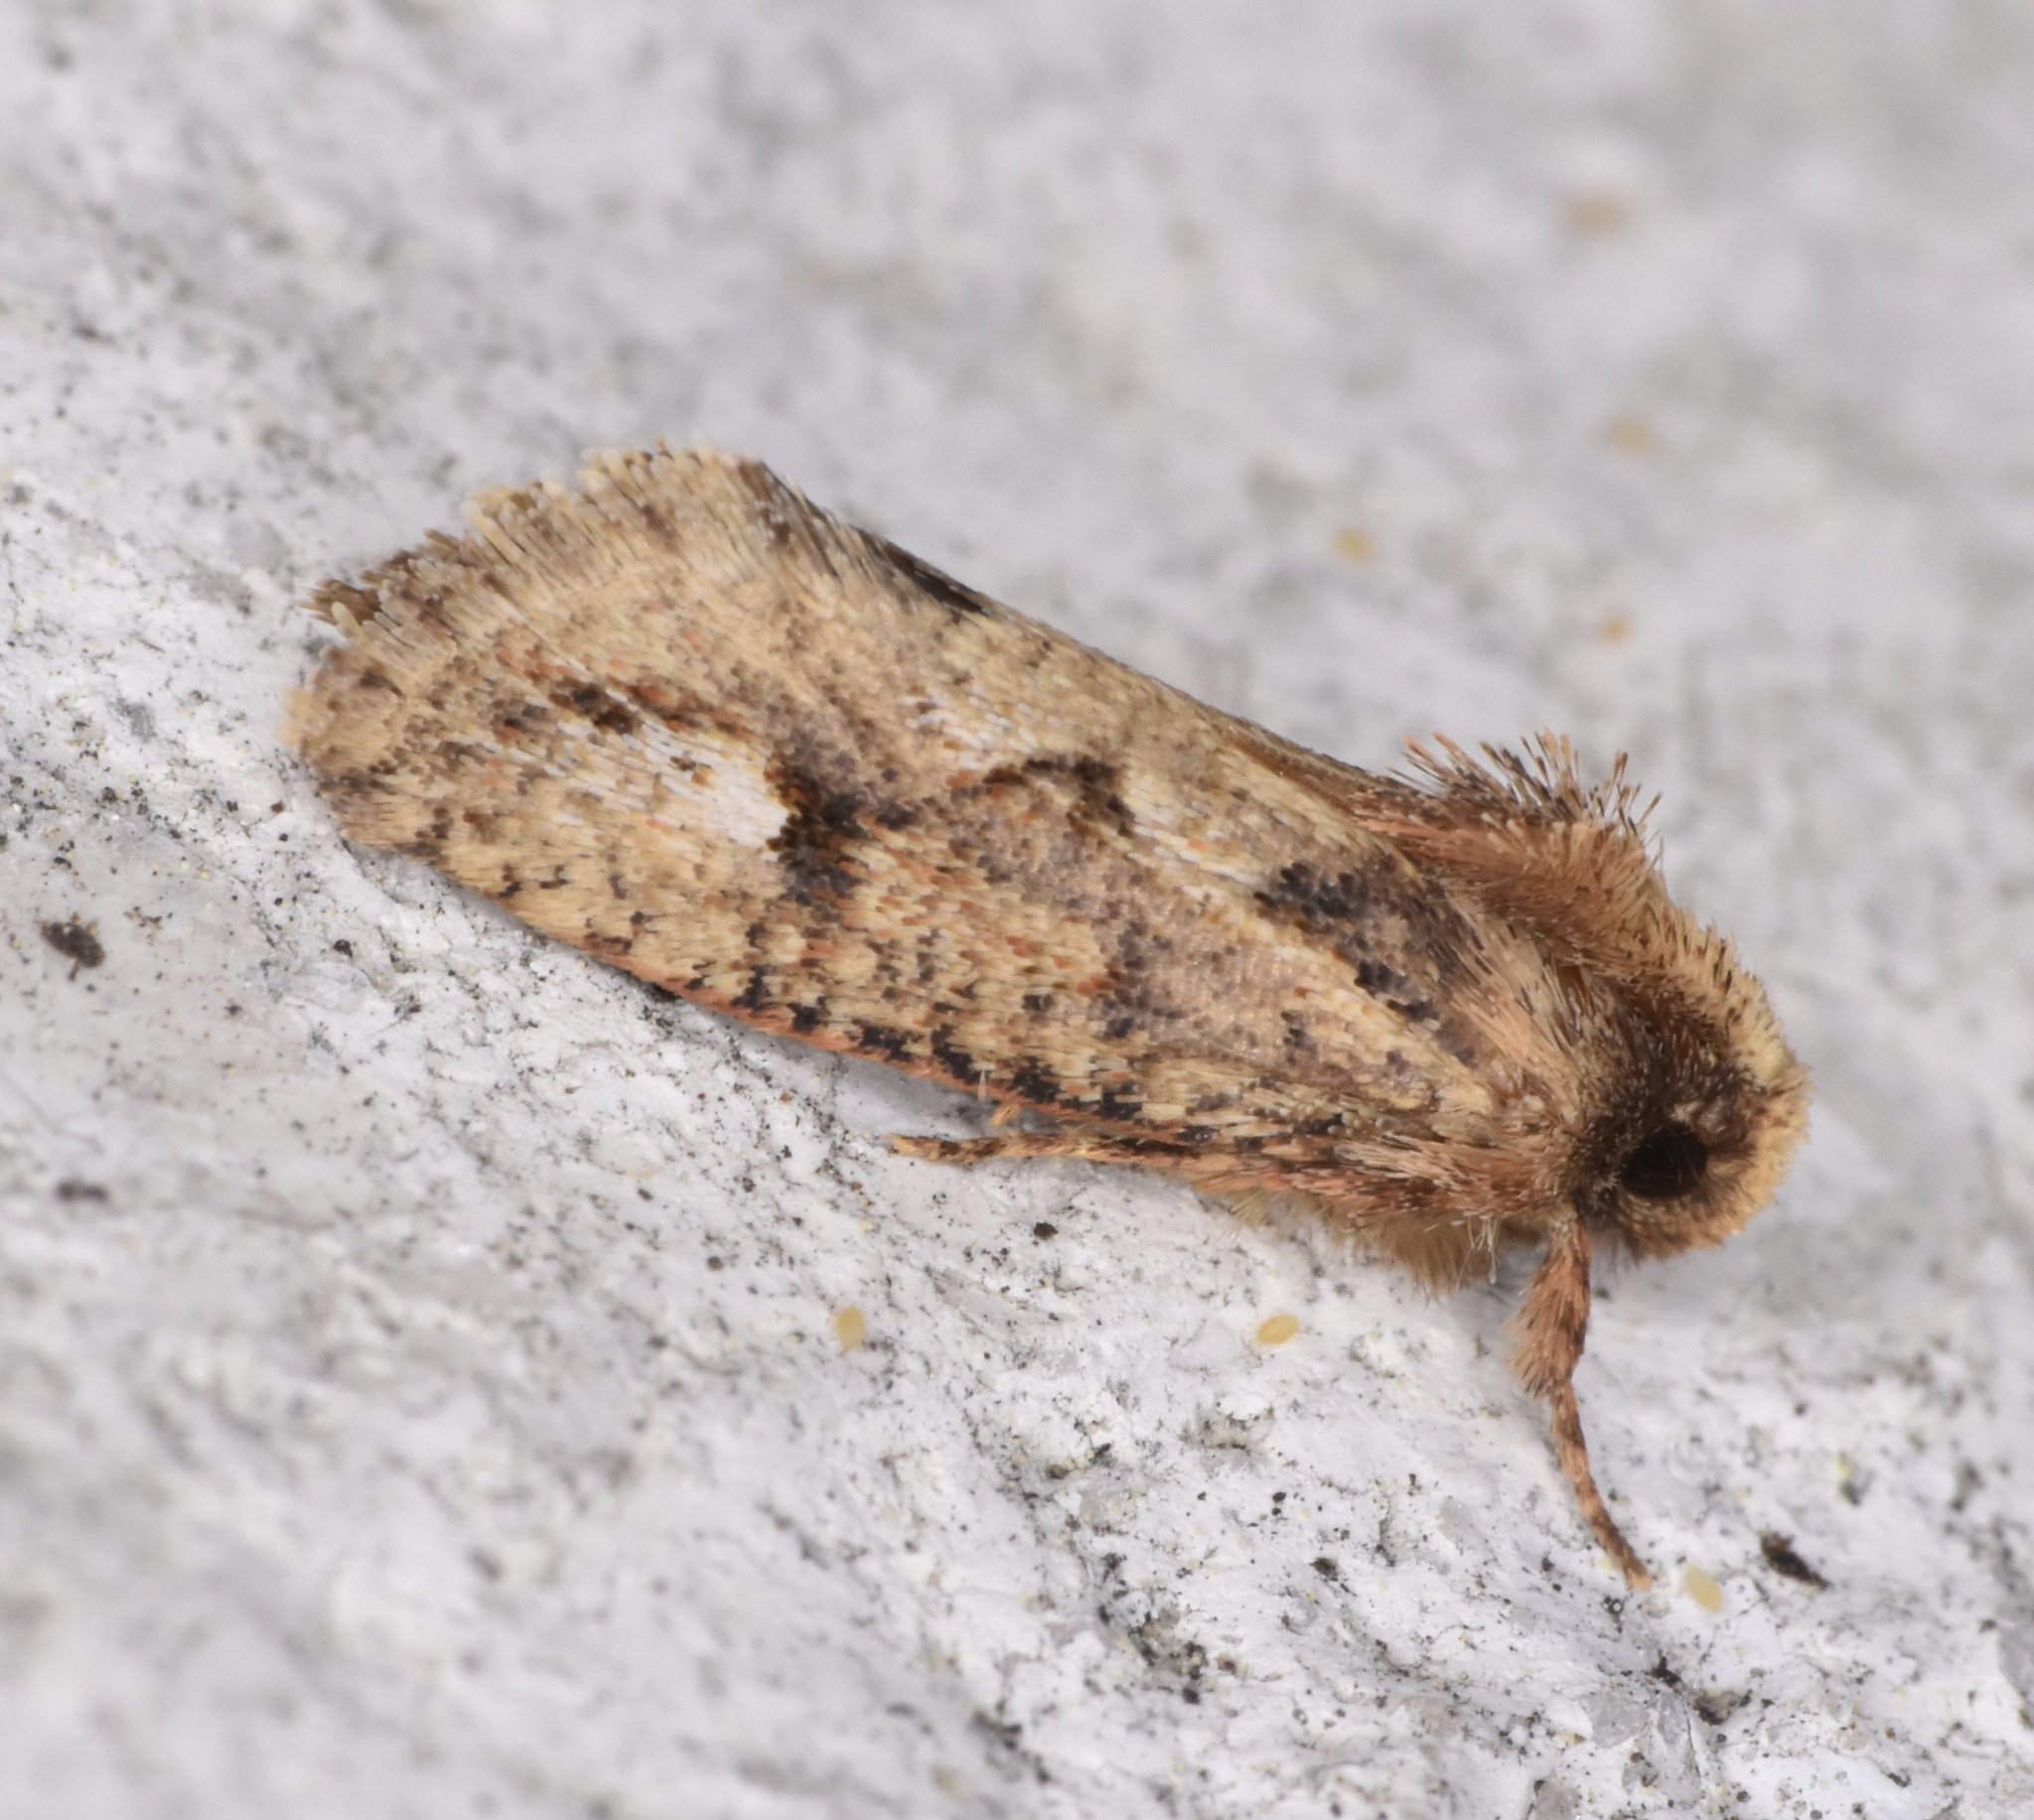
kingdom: Animalia
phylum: Arthropoda
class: Insecta
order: Lepidoptera
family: Tineidae
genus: Acrolophus
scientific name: Acrolophus walsinghami
